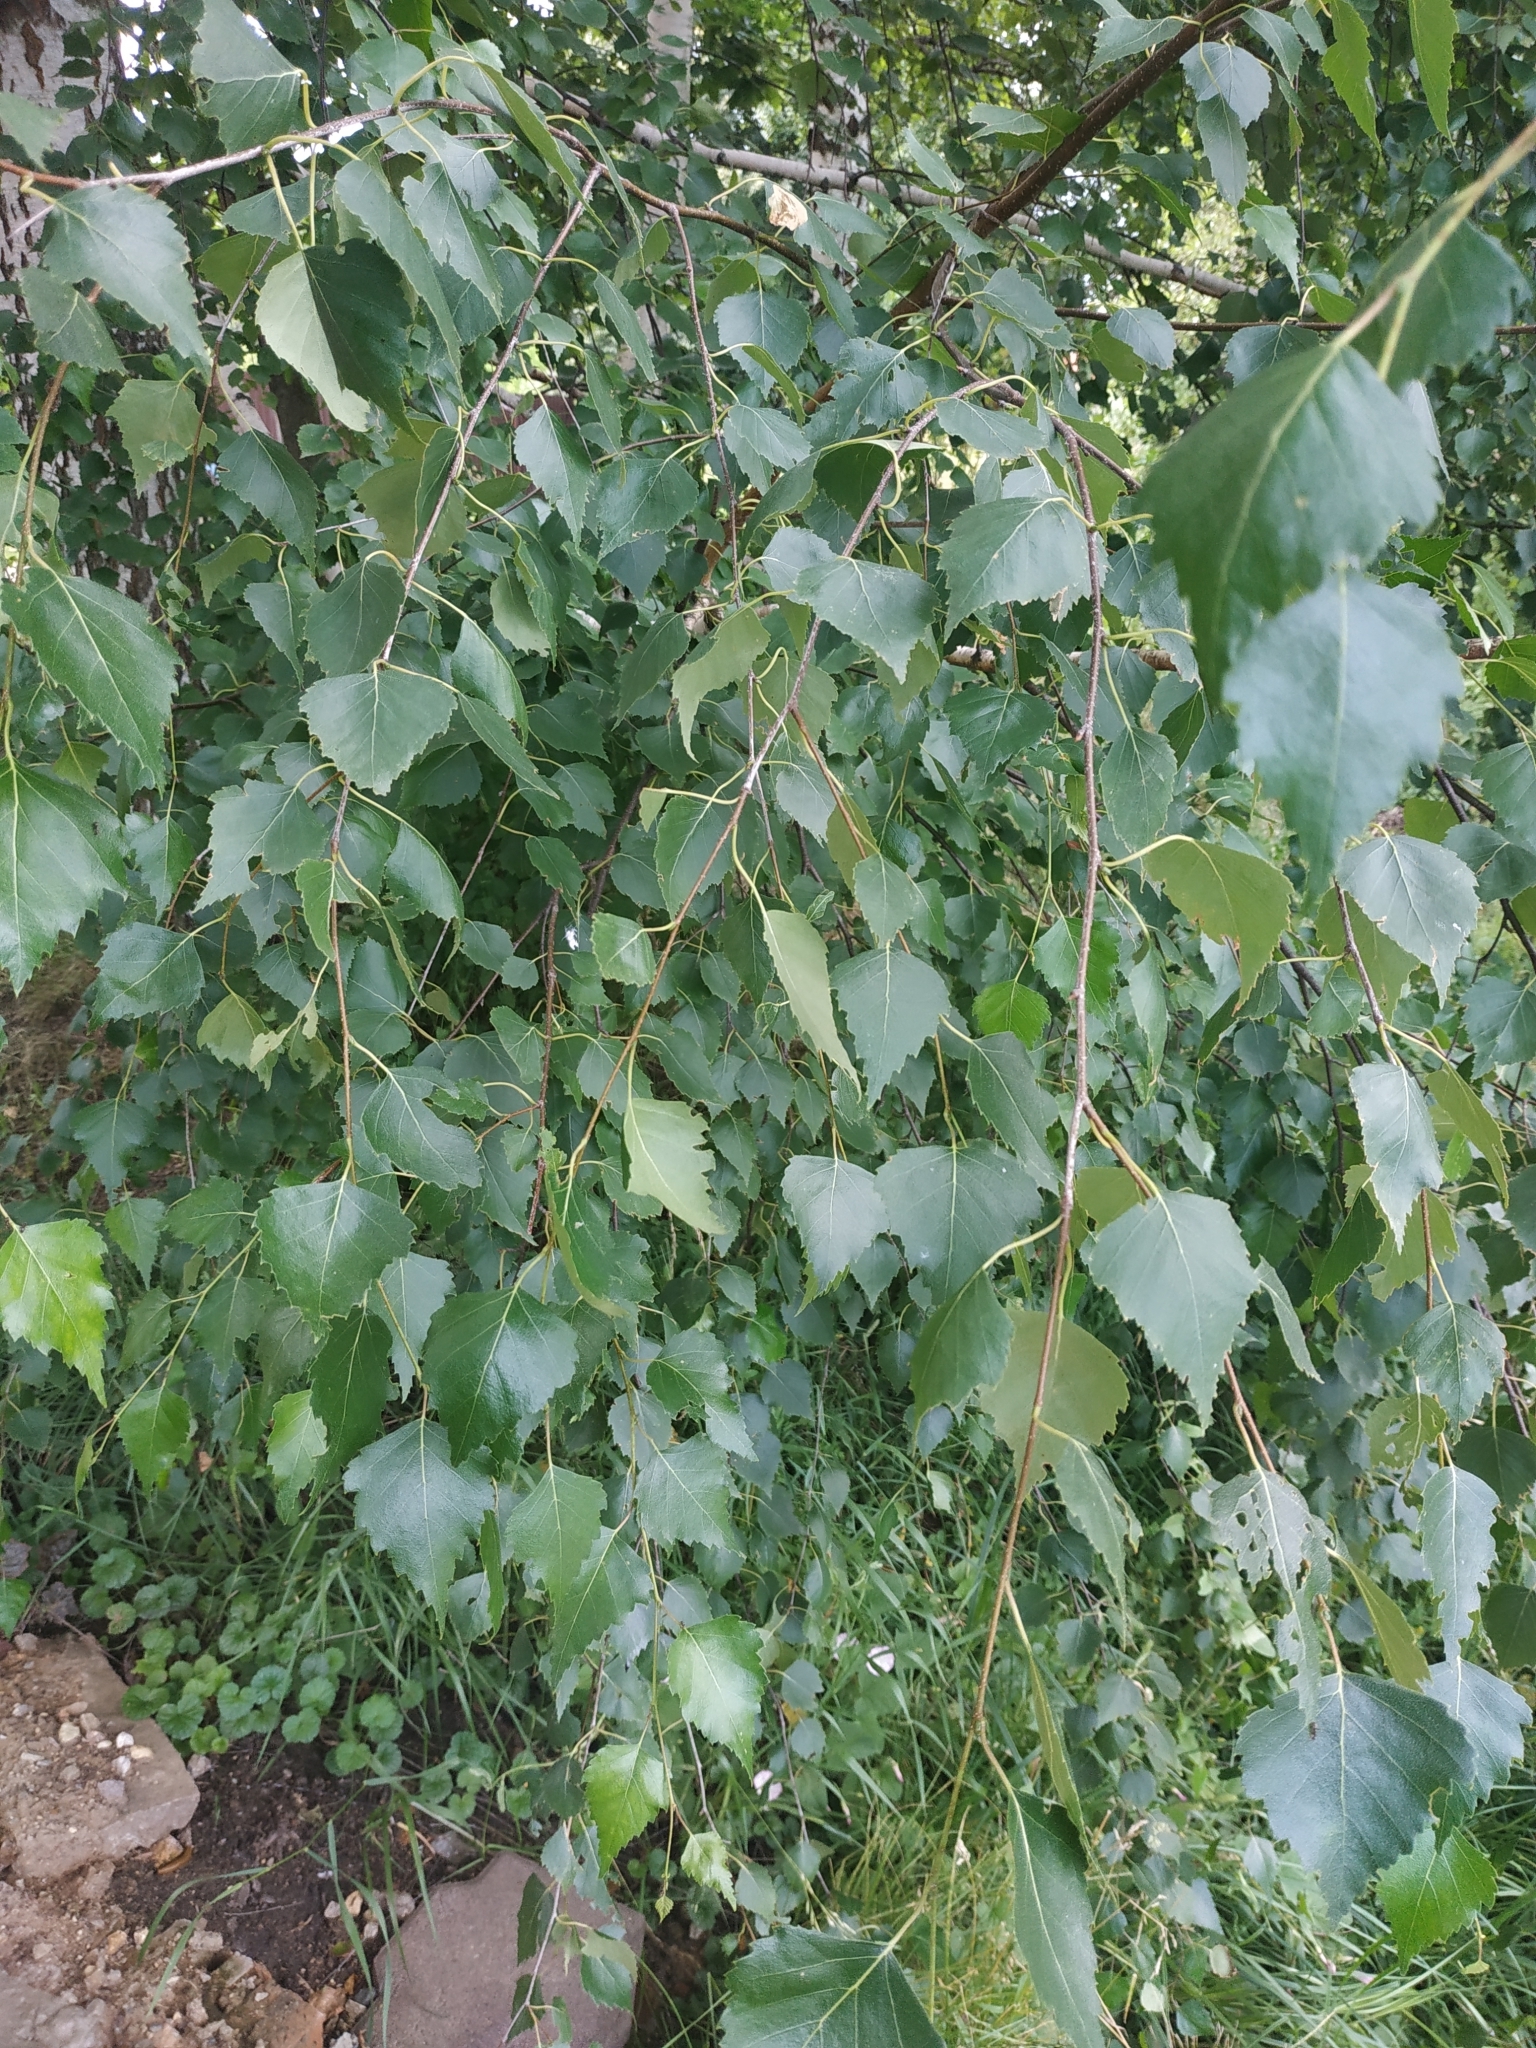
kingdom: Plantae
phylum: Tracheophyta
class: Magnoliopsida
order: Fagales
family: Betulaceae
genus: Betula
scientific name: Betula pendula
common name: Silver birch
